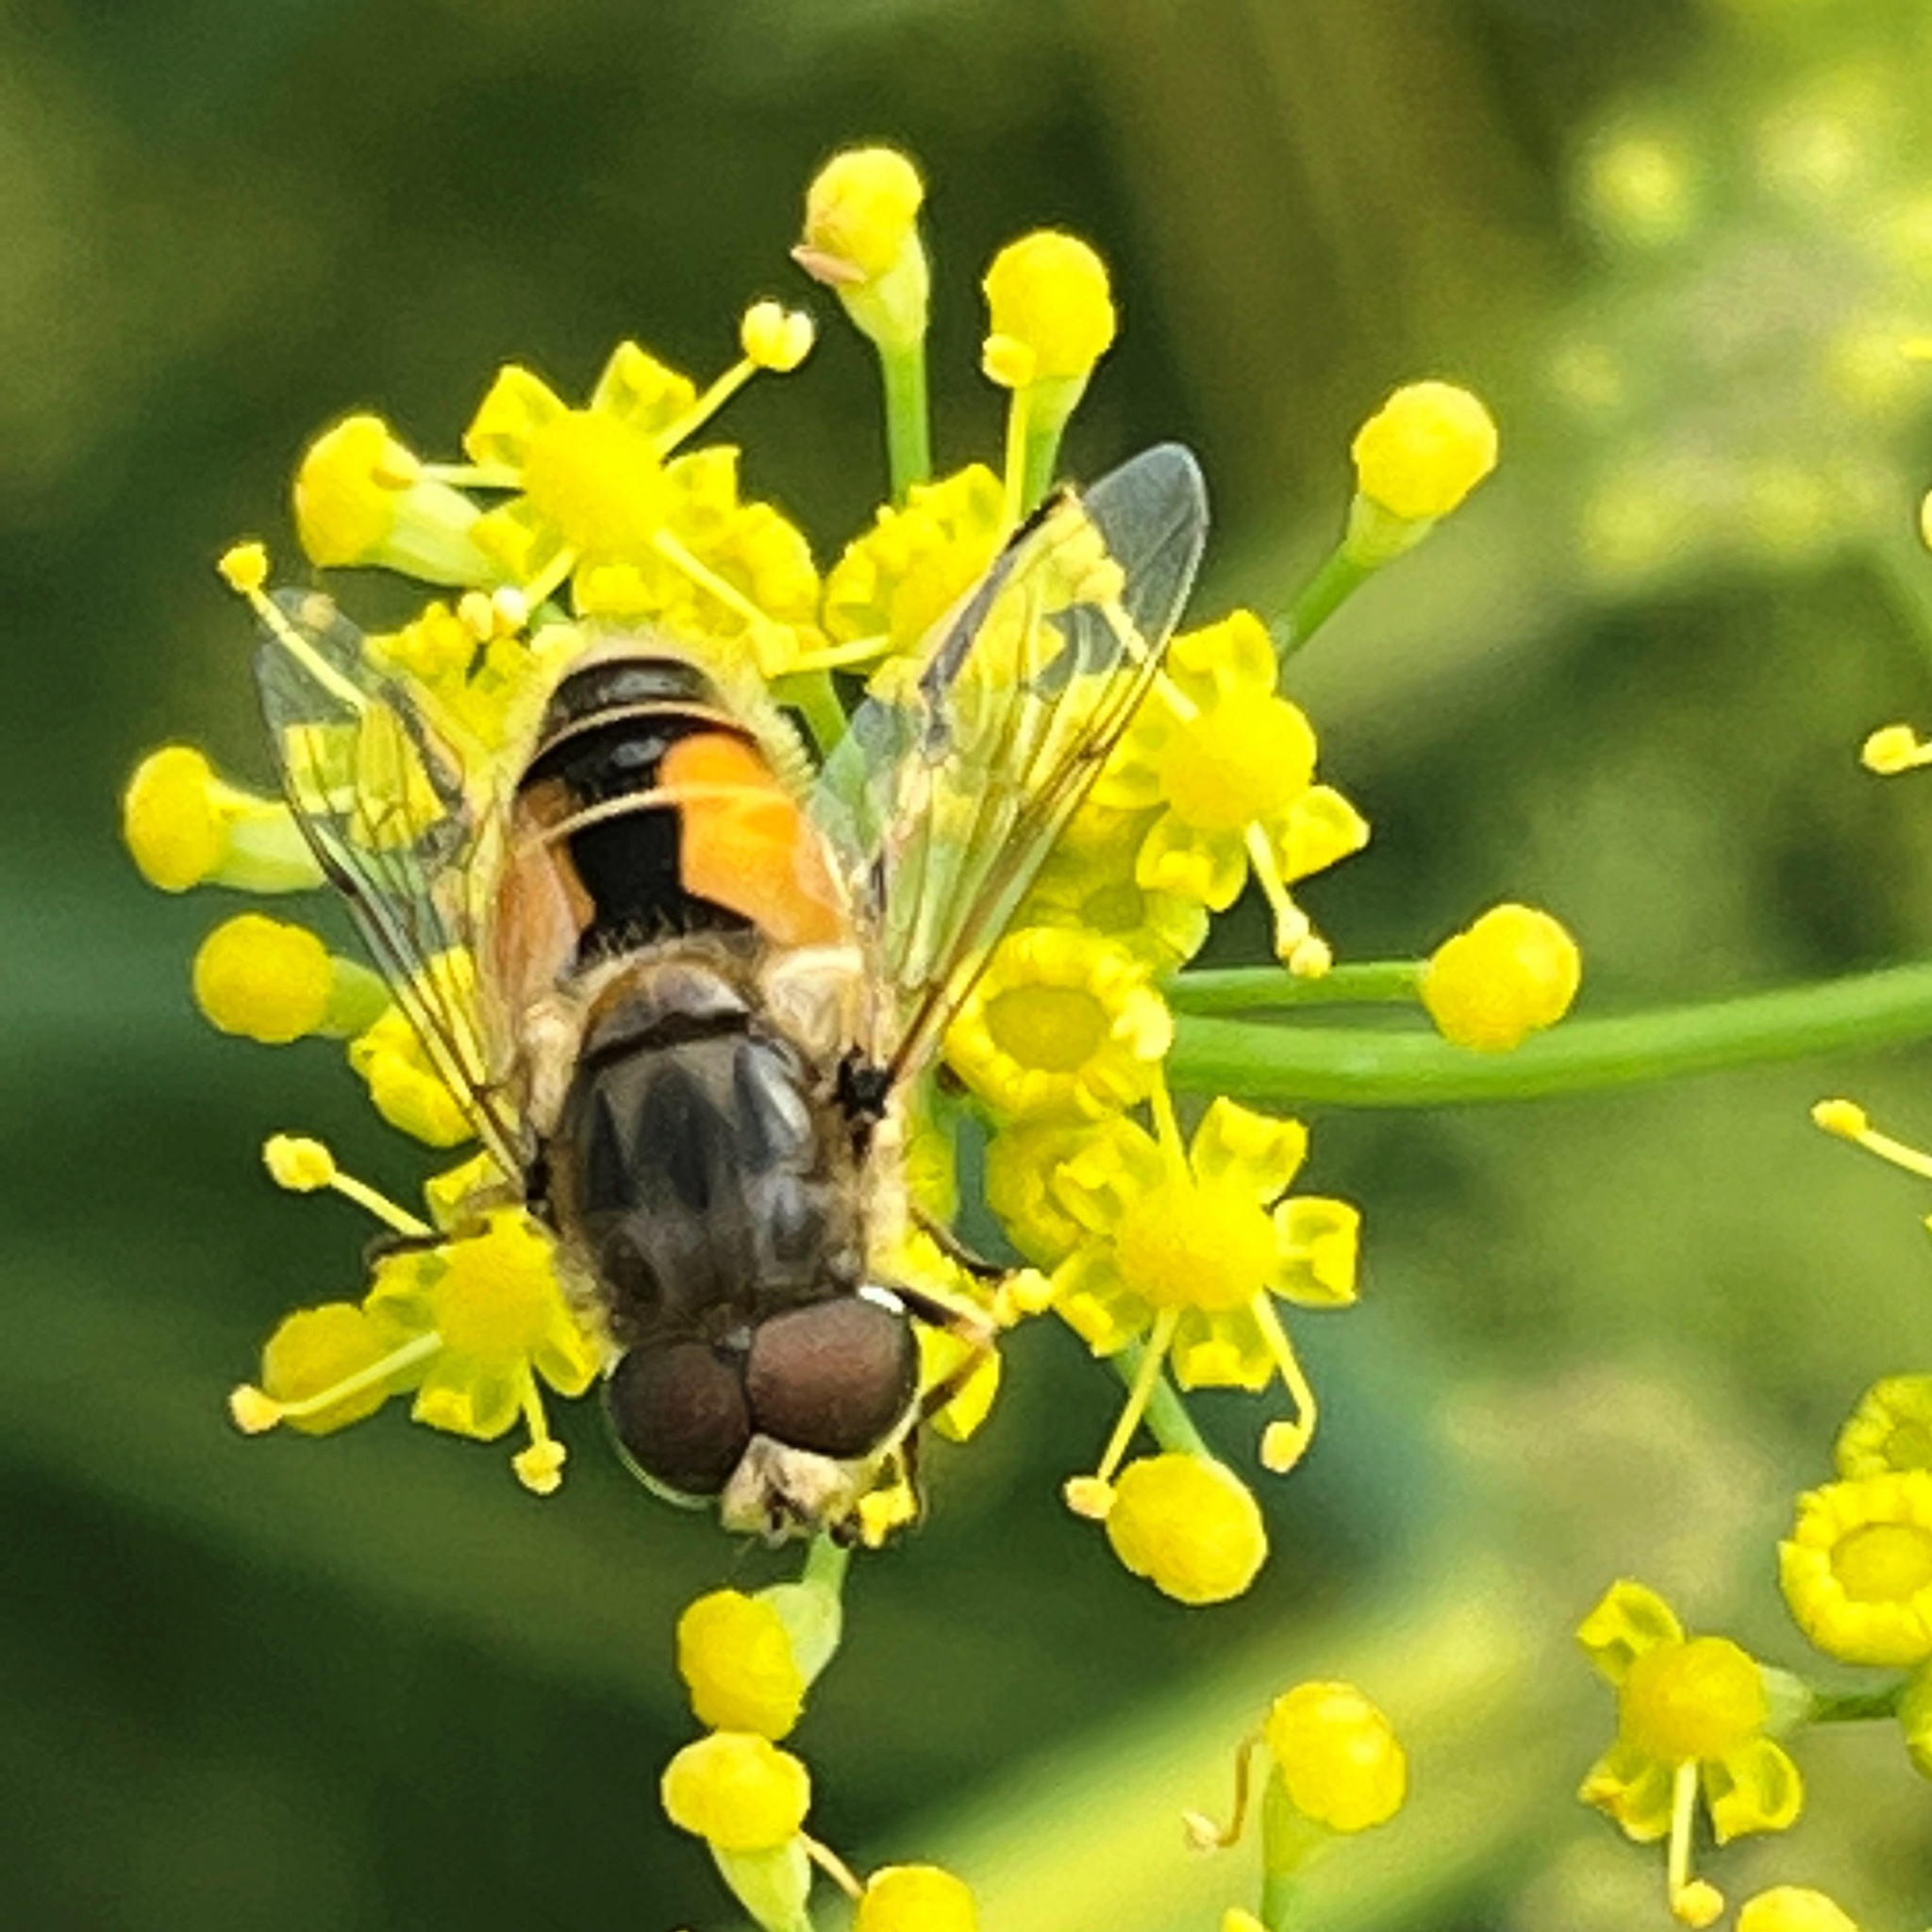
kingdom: Animalia
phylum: Arthropoda
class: Insecta
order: Diptera
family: Syrphidae
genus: Eristalis
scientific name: Eristalis arbustorum
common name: Hover fly
